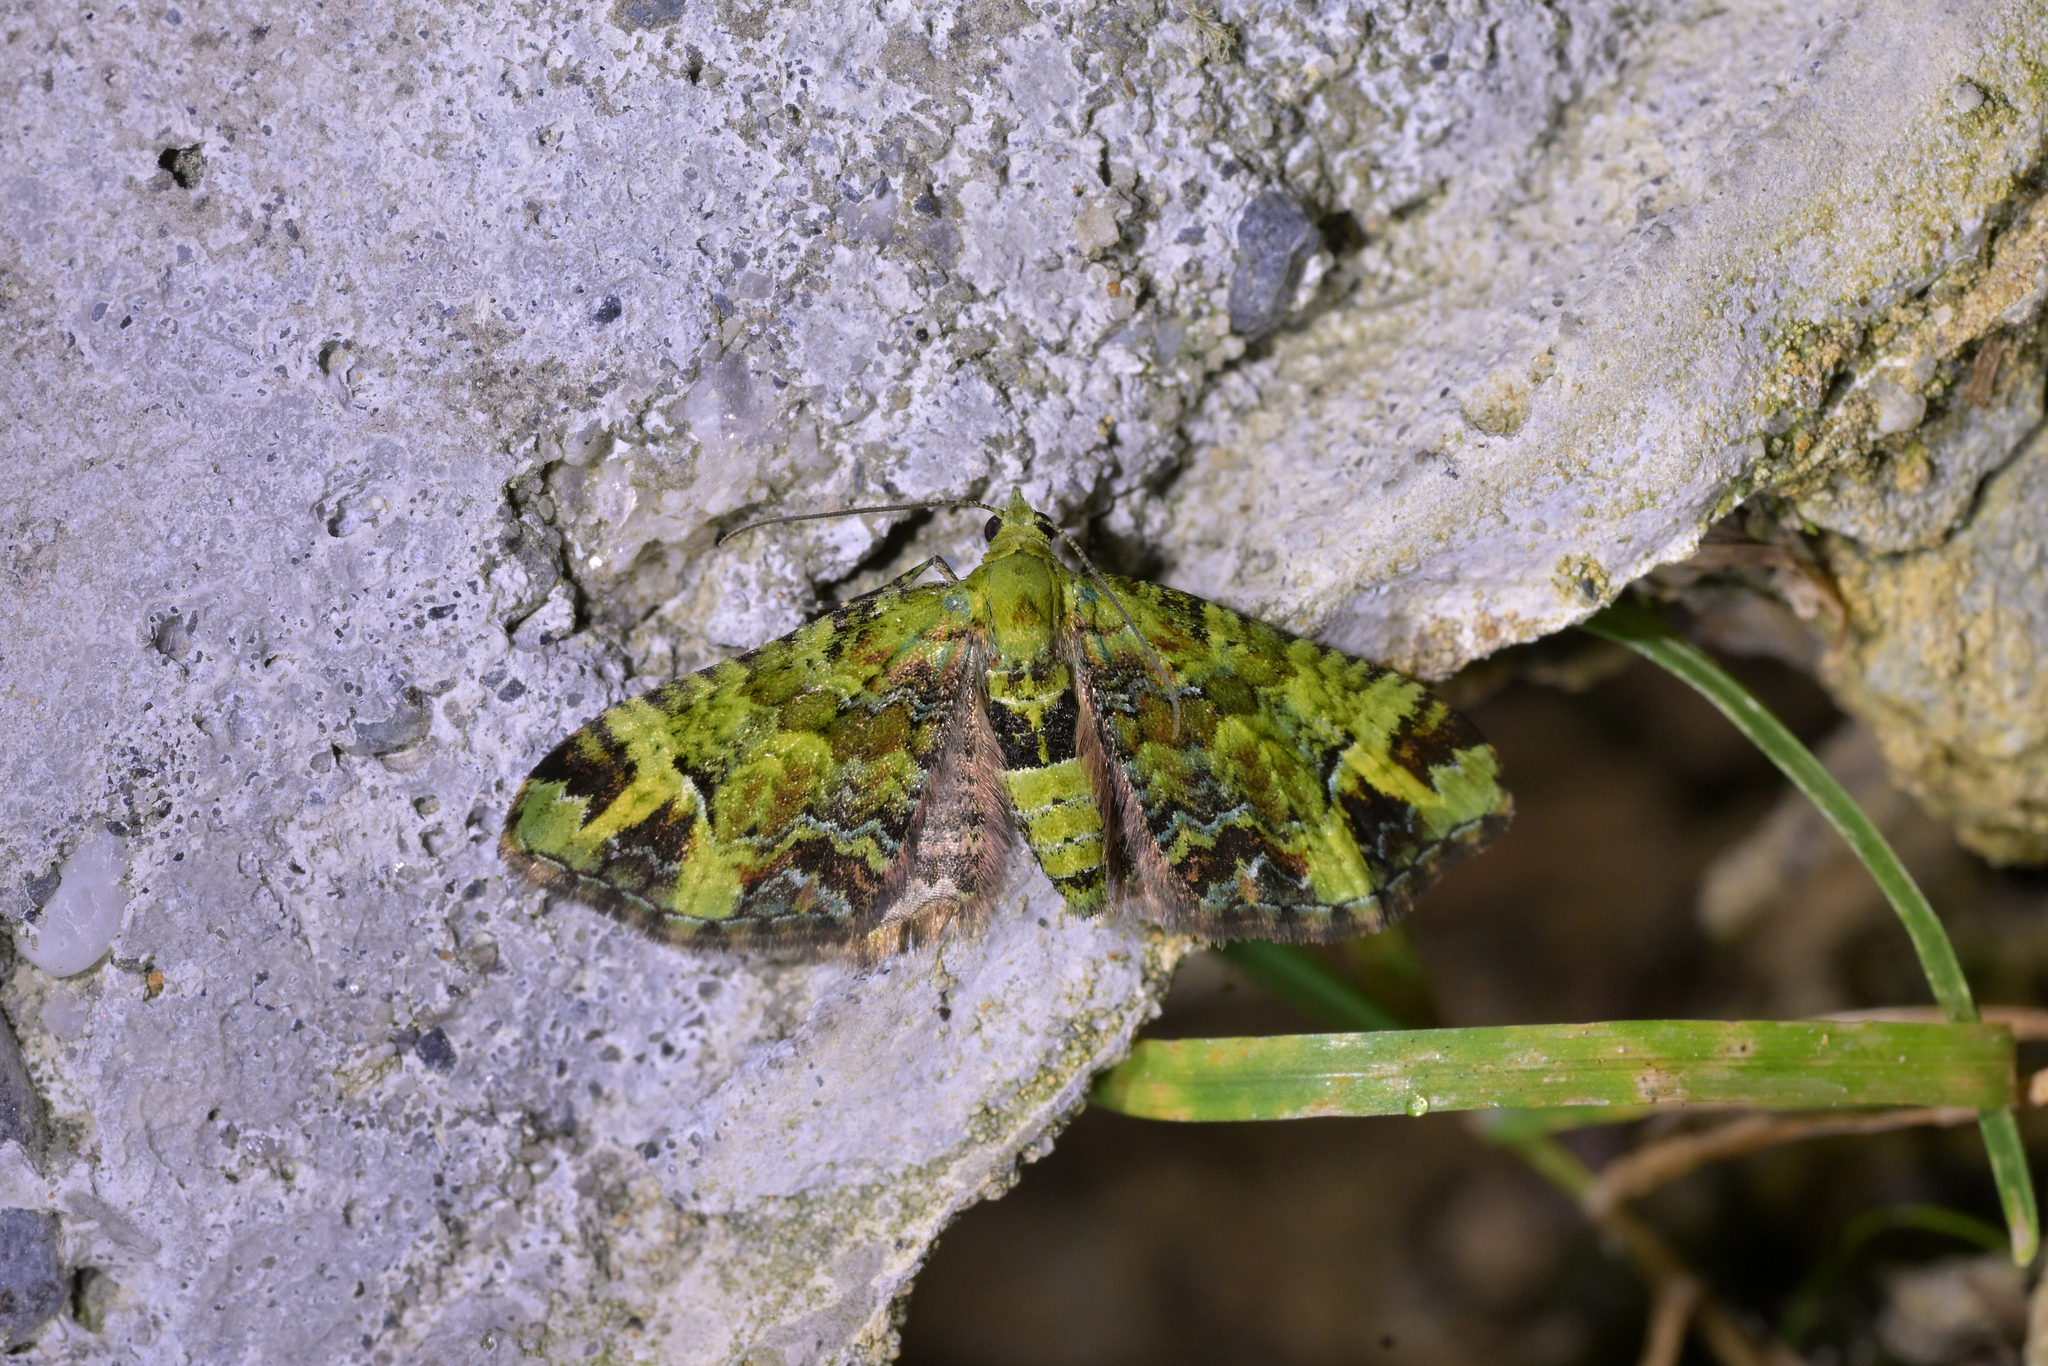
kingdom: Animalia
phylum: Arthropoda
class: Insecta
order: Lepidoptera
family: Geometridae
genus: Pasiphila
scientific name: Pasiphila malachita
